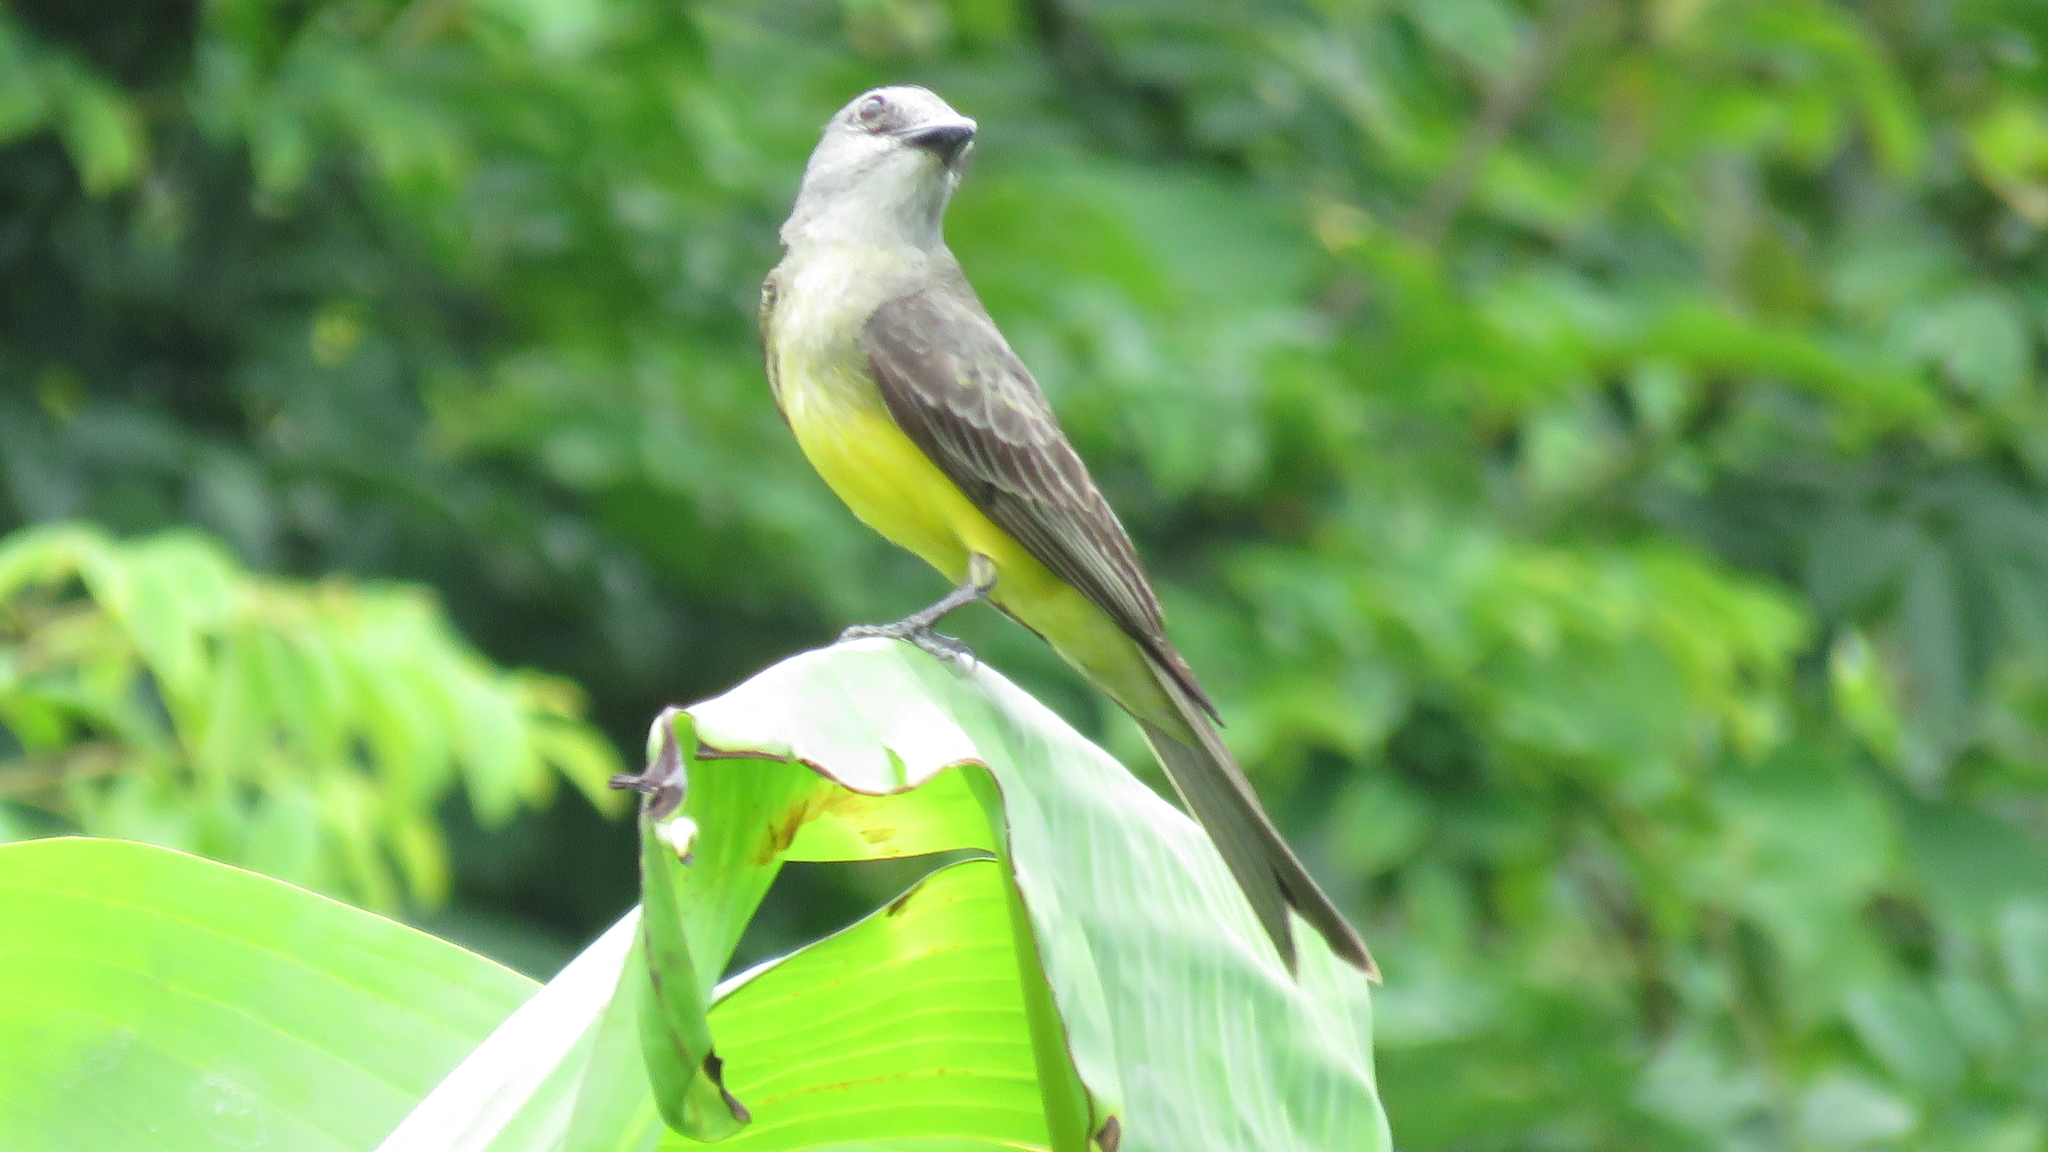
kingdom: Animalia
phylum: Chordata
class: Aves
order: Passeriformes
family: Tyrannidae
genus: Tyrannus
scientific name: Tyrannus melancholicus
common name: Tropical kingbird
